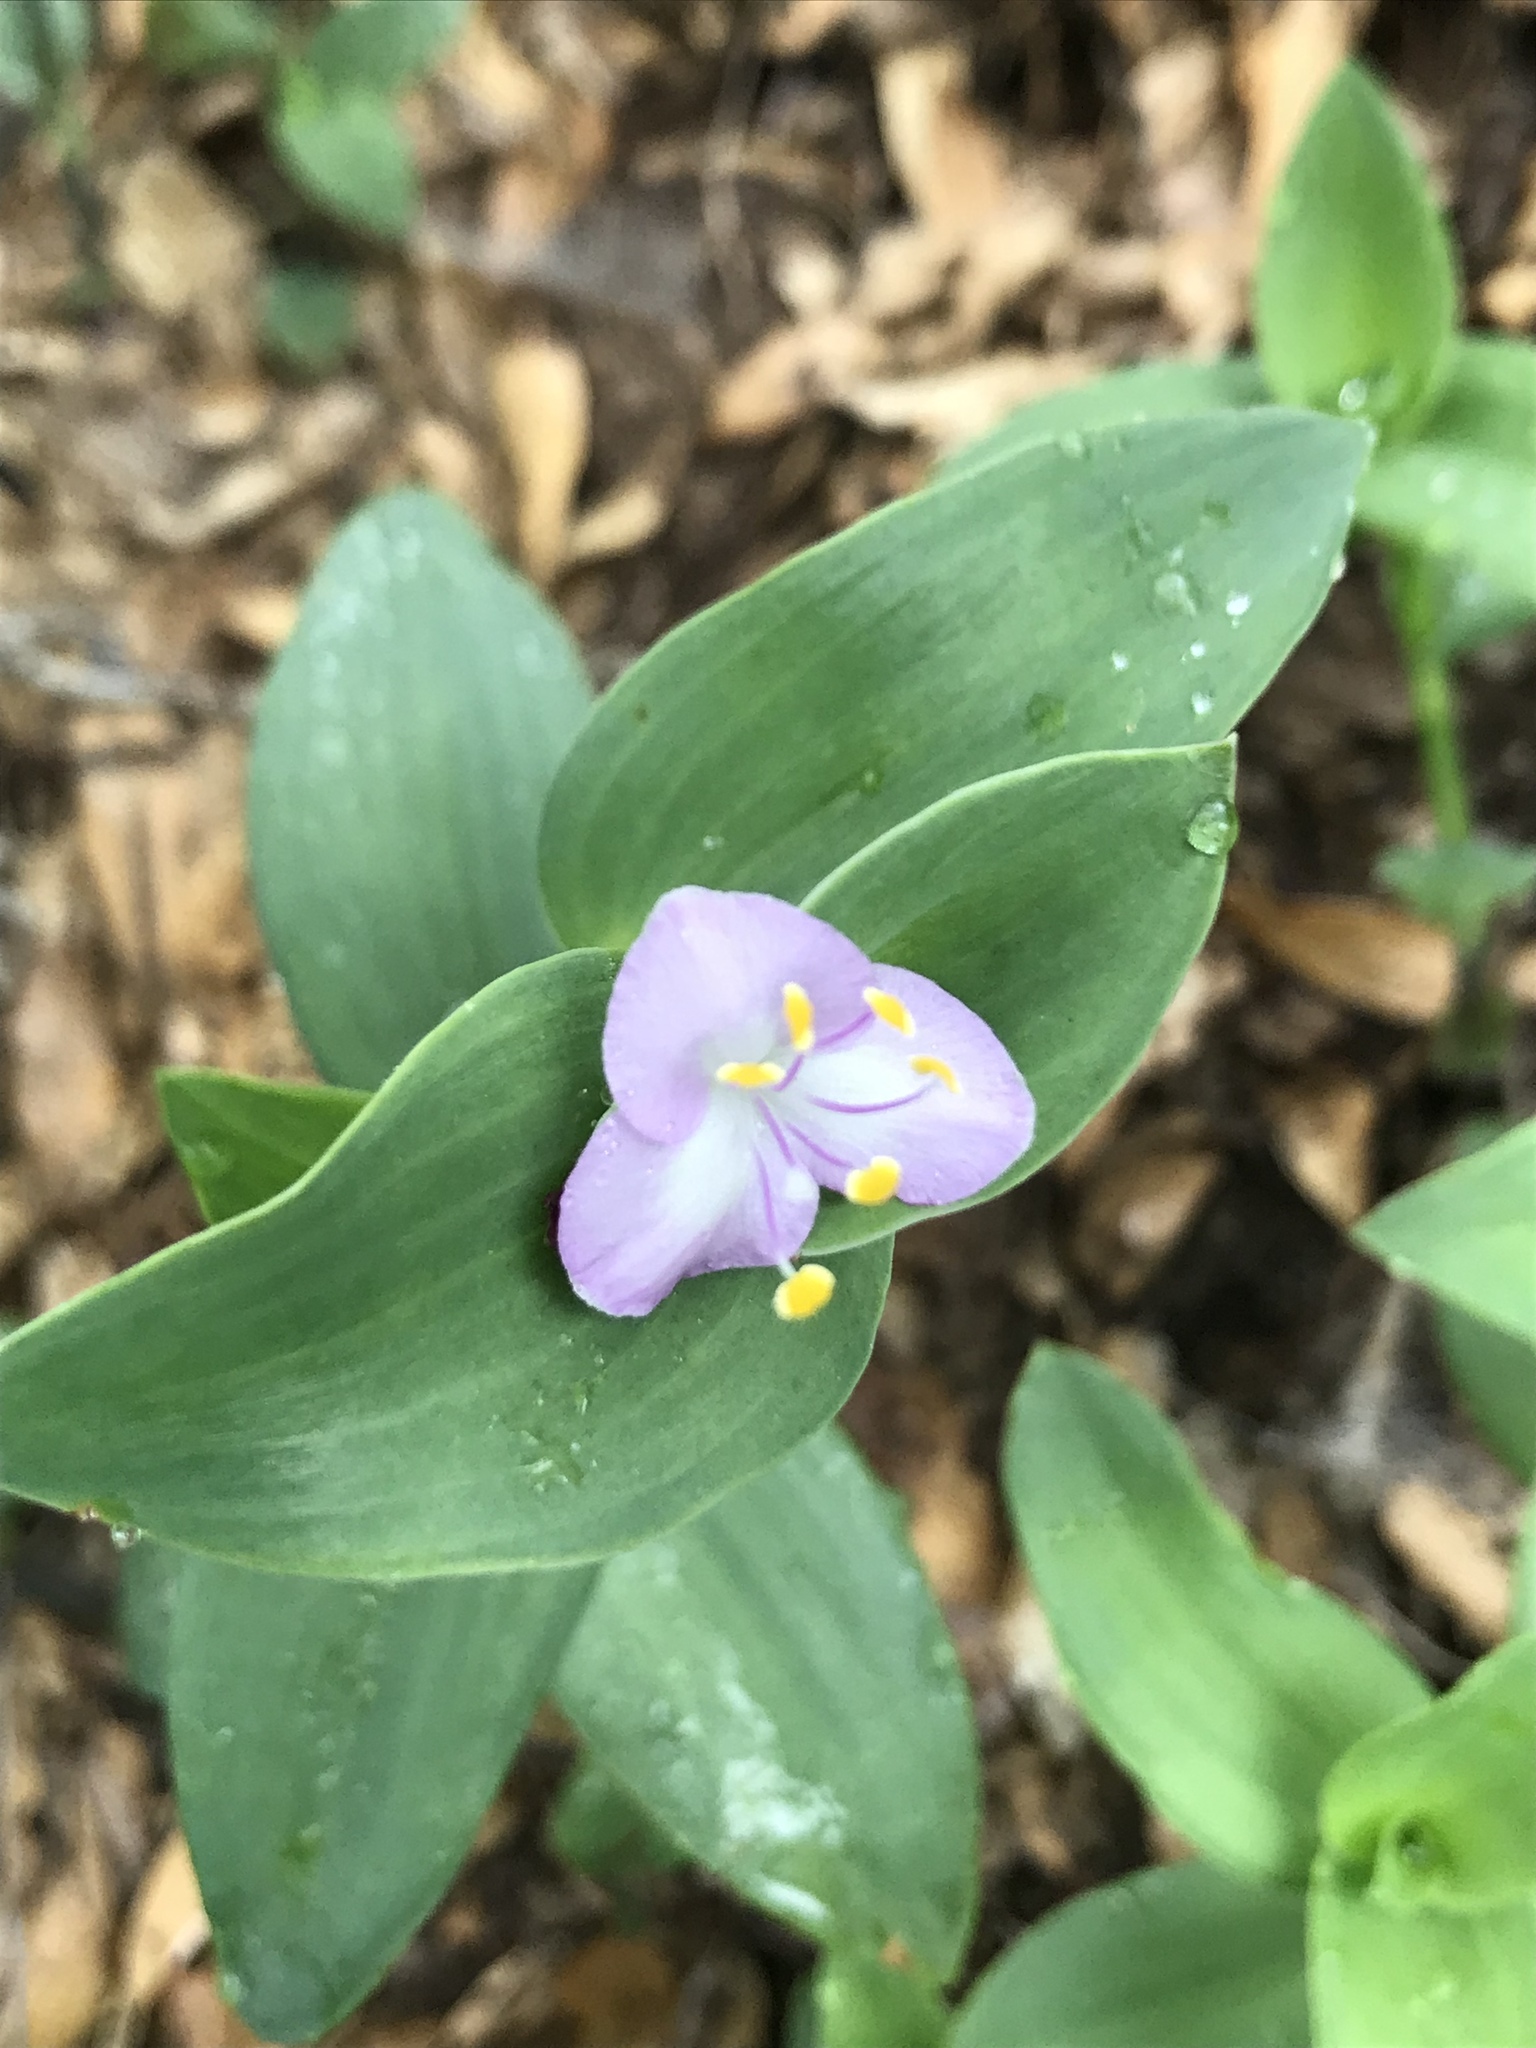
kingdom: Plantae
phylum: Tracheophyta
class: Liliopsida
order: Commelinales
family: Commelinaceae
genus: Tradescantia
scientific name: Tradescantia brevifolia
